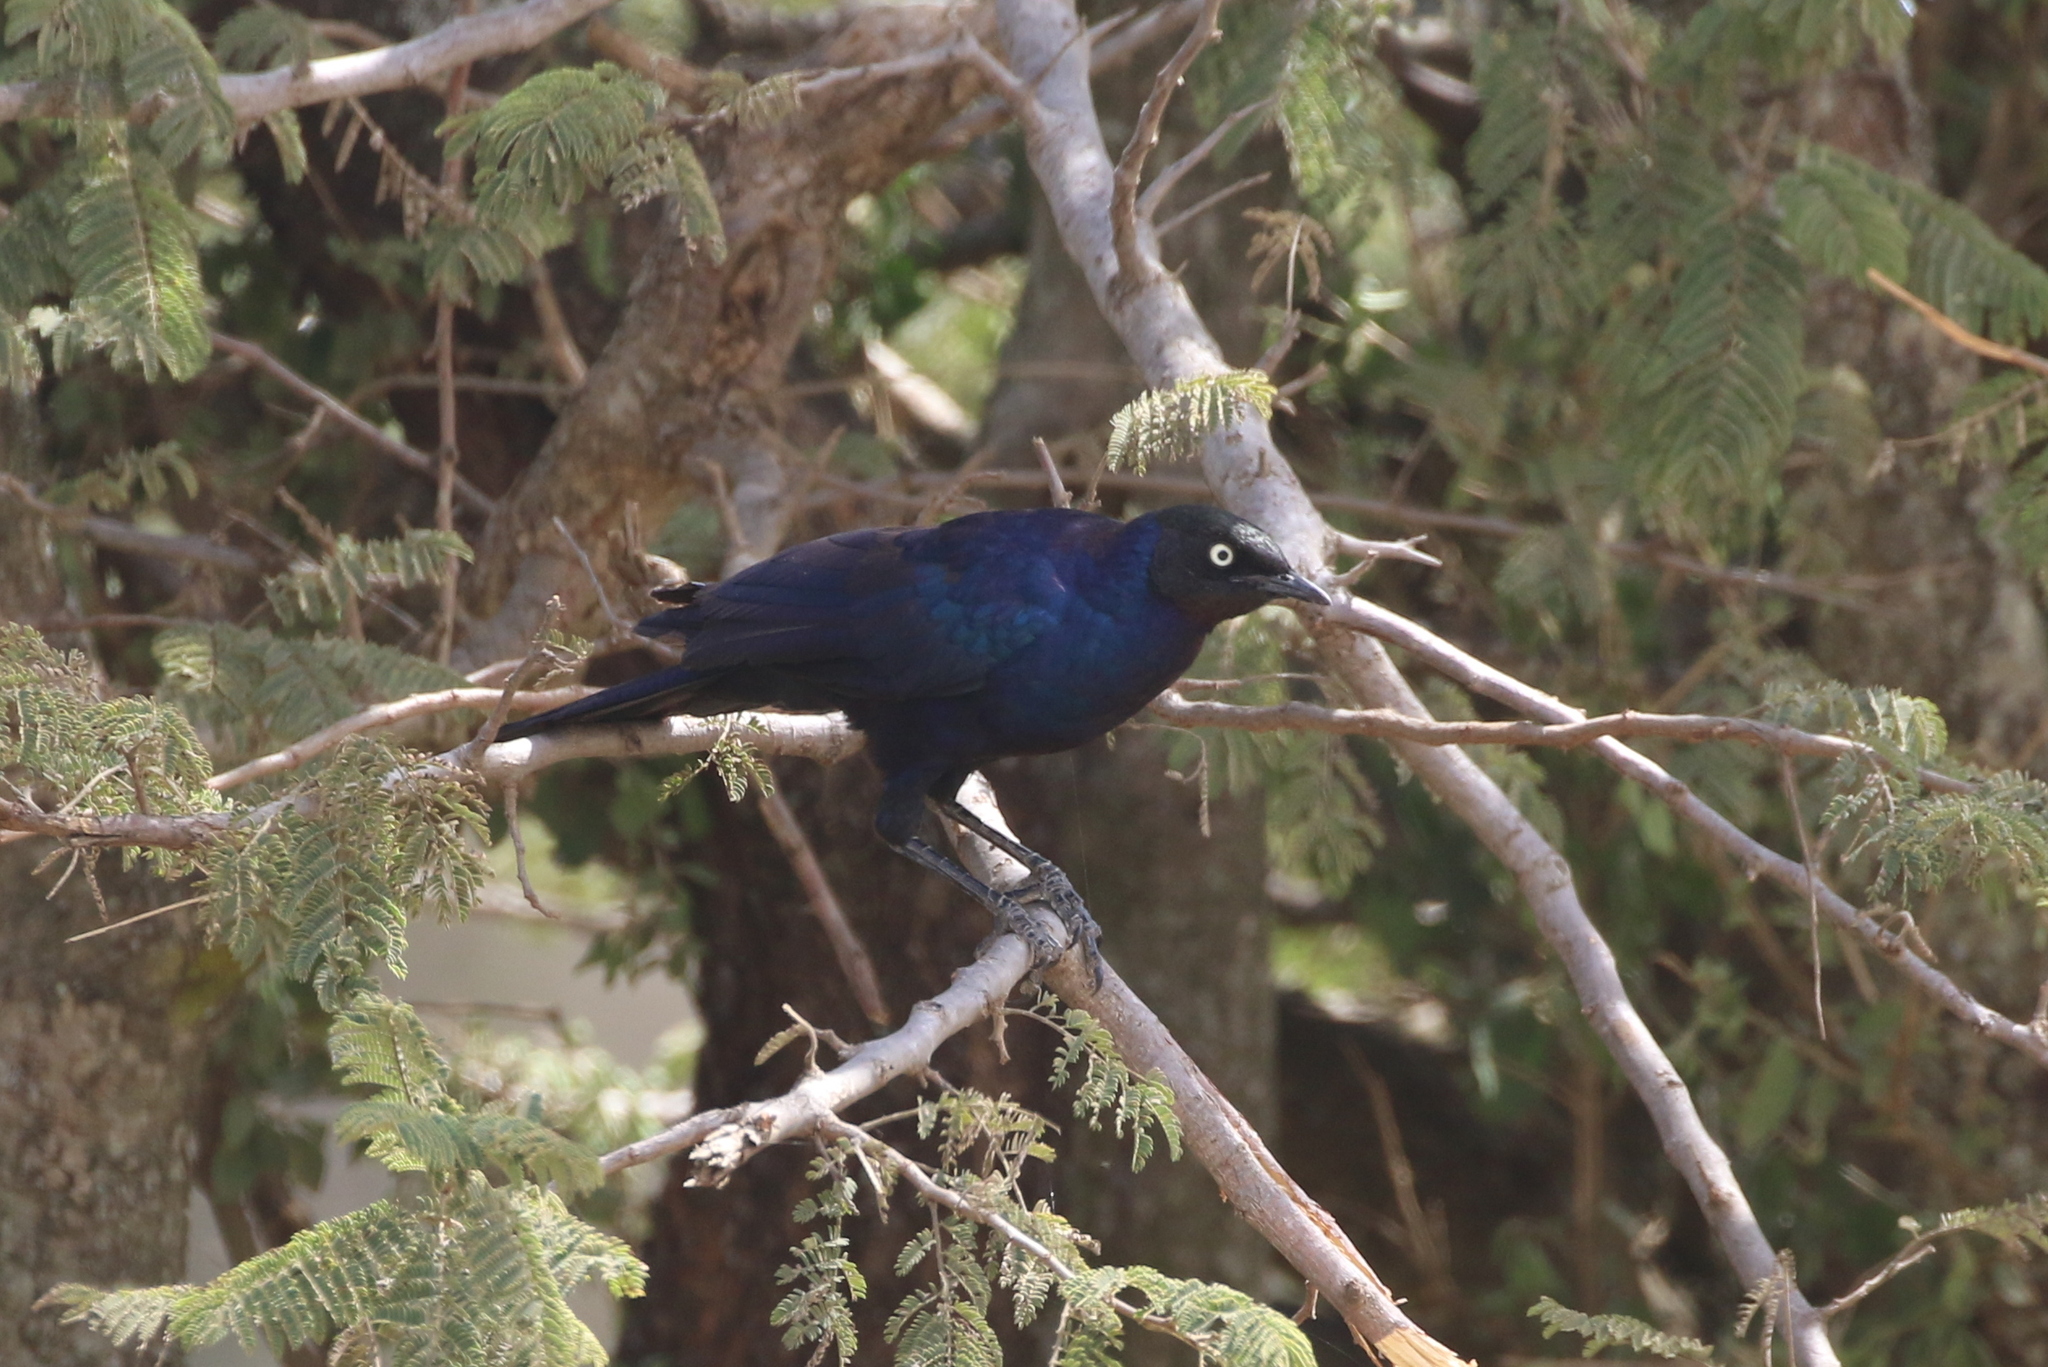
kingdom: Animalia
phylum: Chordata
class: Aves
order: Passeriformes
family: Sturnidae
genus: Lamprotornis
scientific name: Lamprotornis purpuroptera
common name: Rüppell's starling
